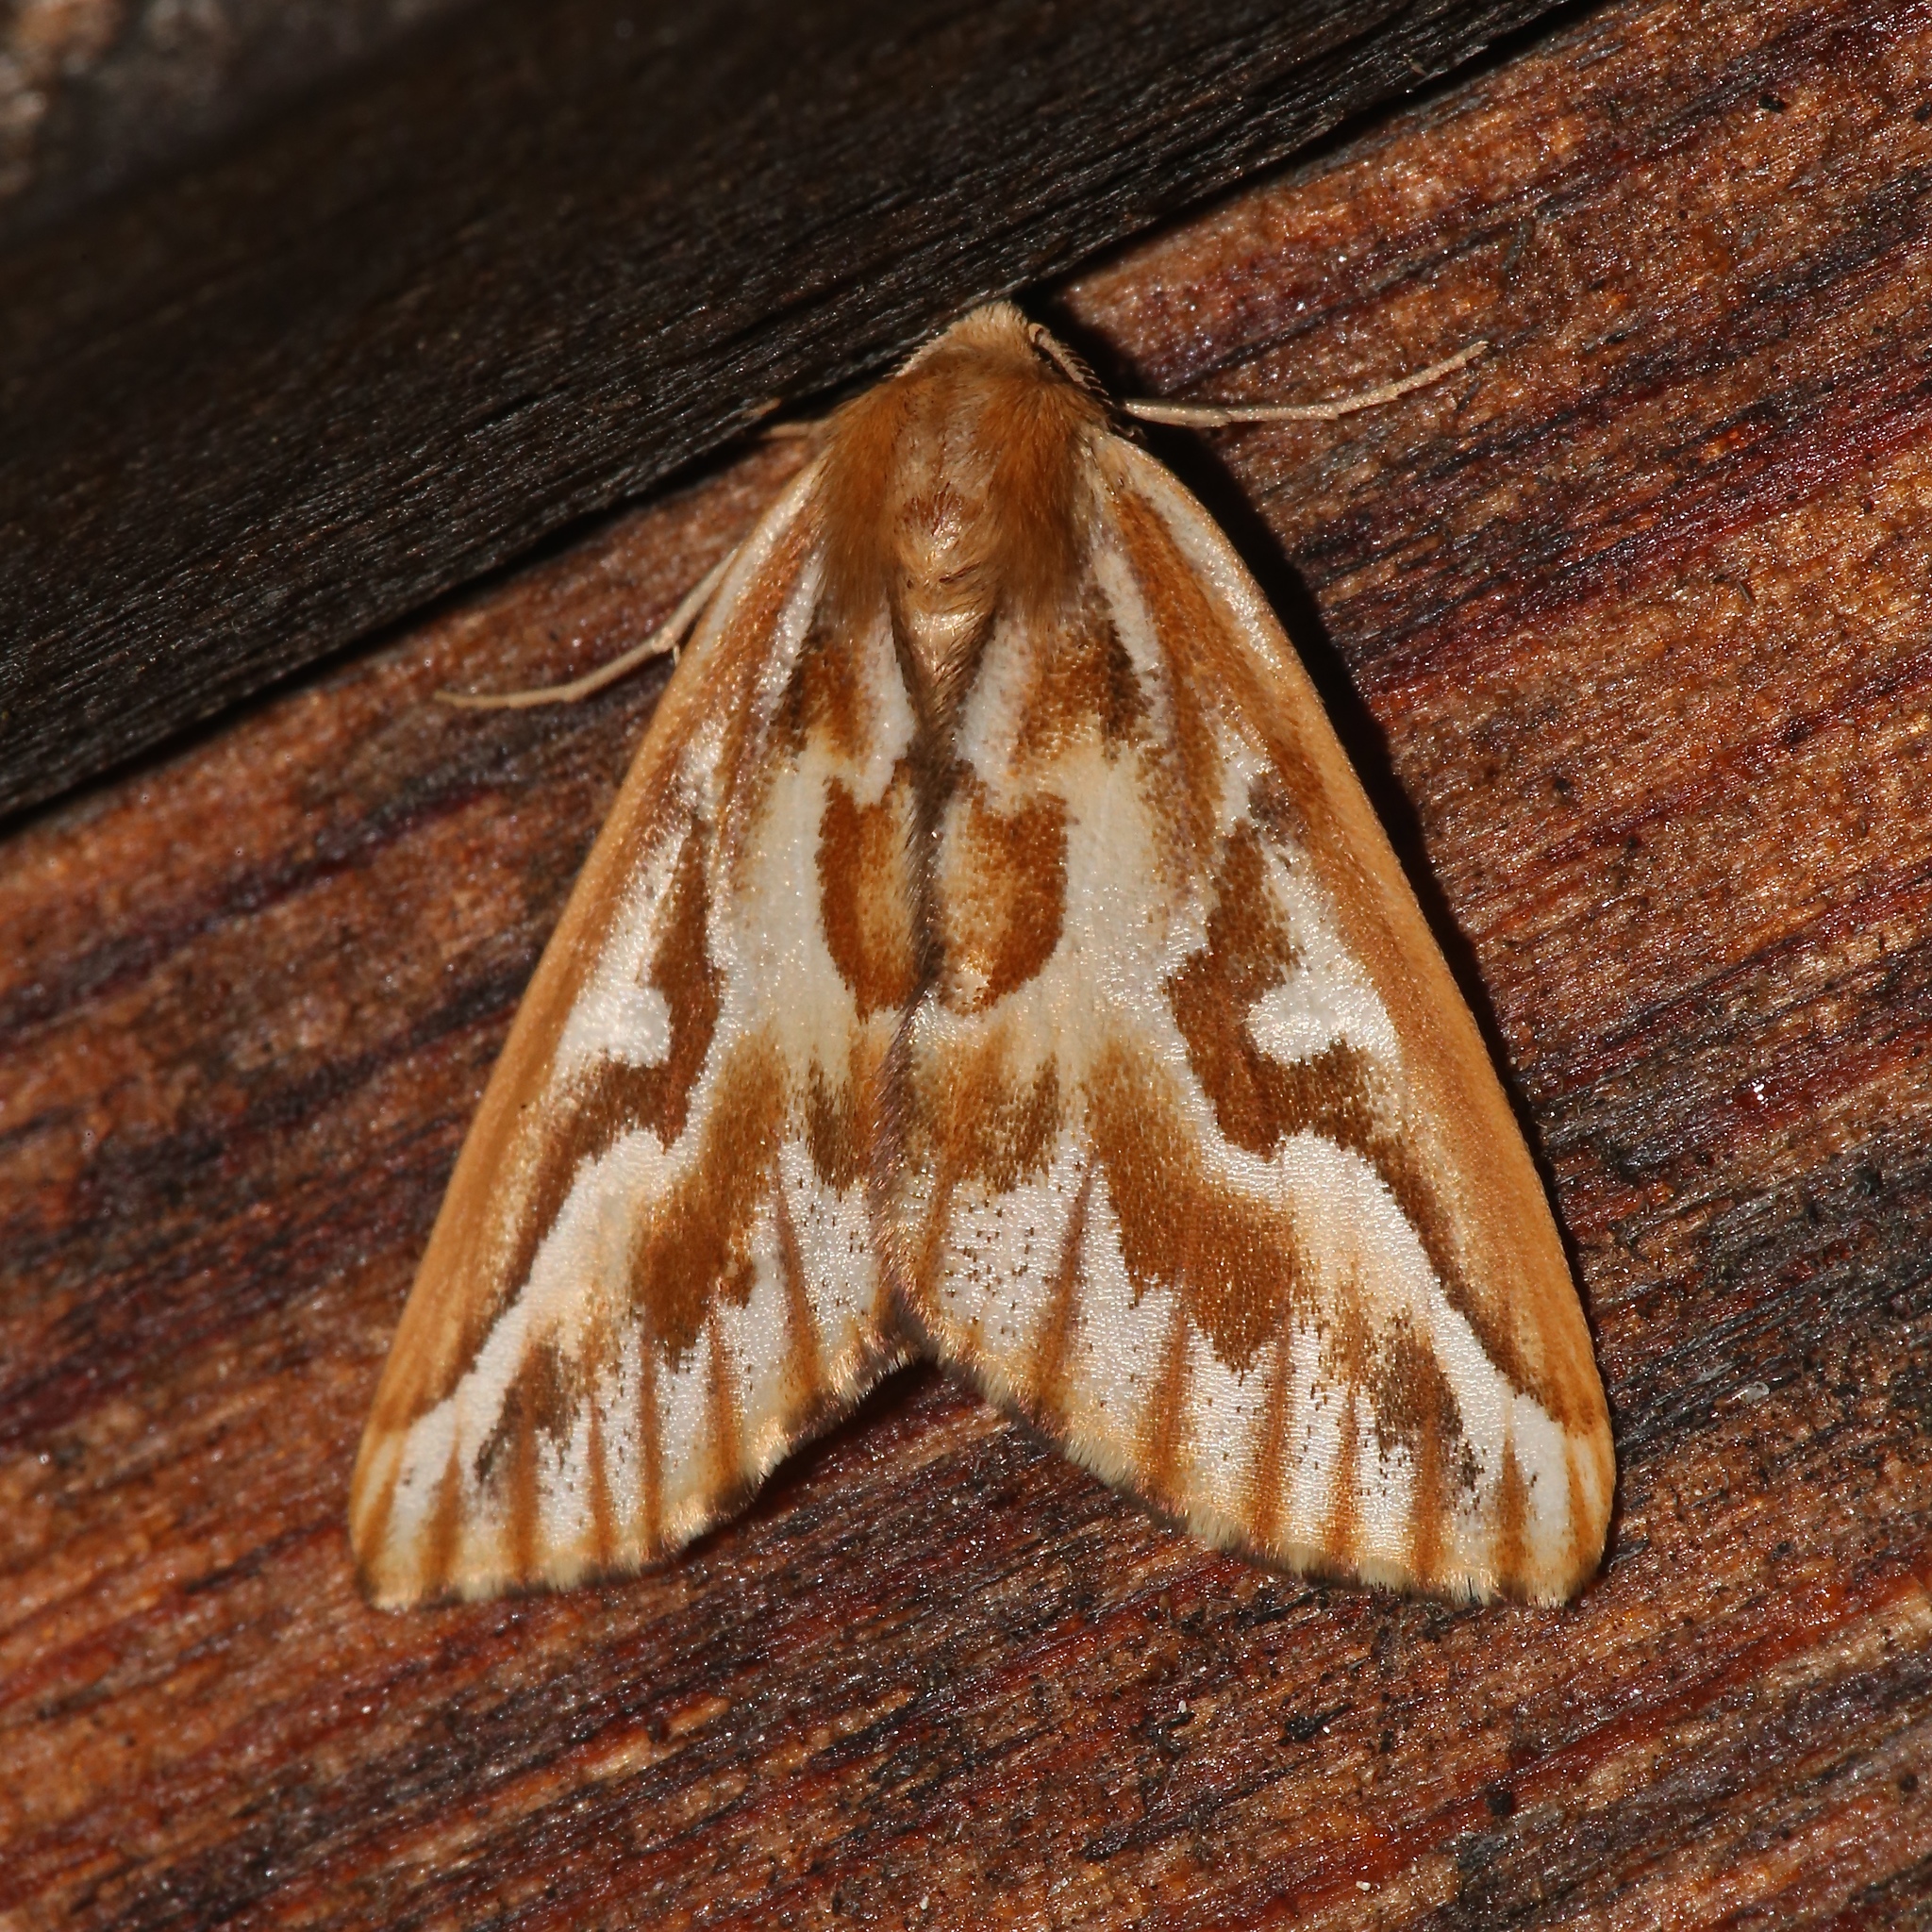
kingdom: Animalia
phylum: Arthropoda
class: Insecta
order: Lepidoptera
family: Geometridae
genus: Caripeta
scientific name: Caripeta piniata
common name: Northern pine looper moth
